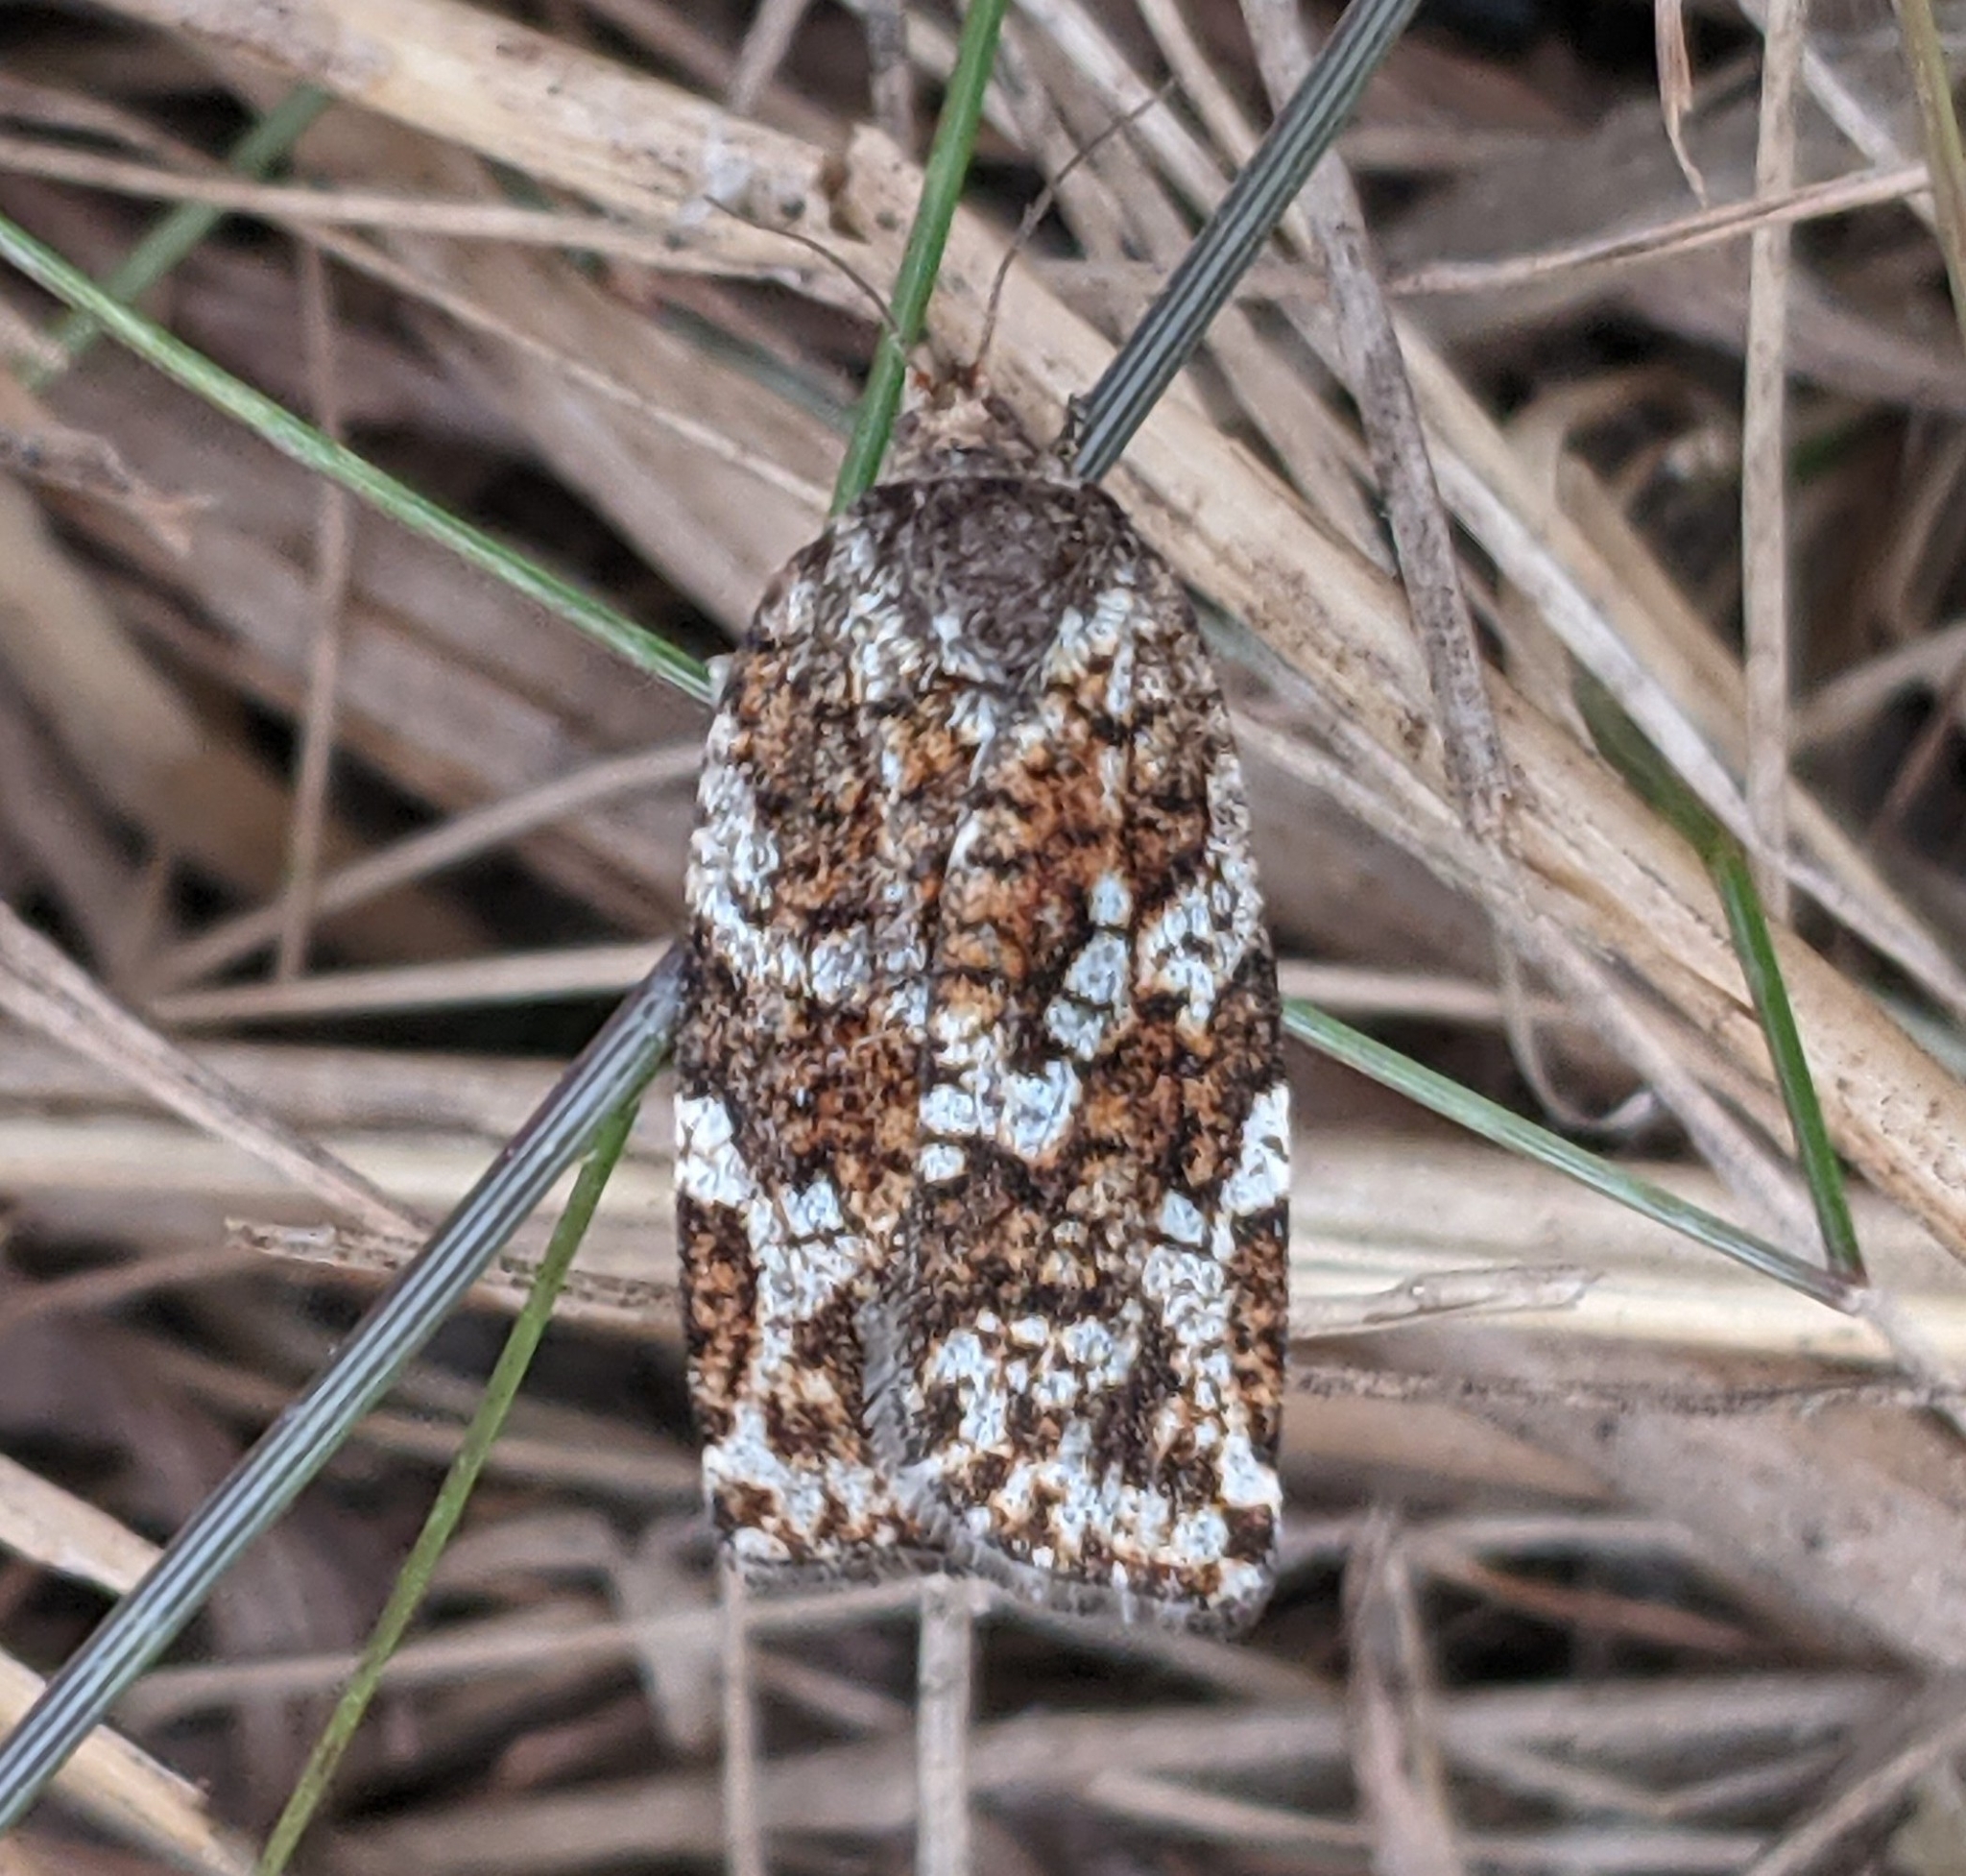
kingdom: Animalia
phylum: Arthropoda
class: Insecta
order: Lepidoptera
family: Tortricidae
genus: Choristoneura
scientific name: Choristoneura fumiferana
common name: Spruce budworm
